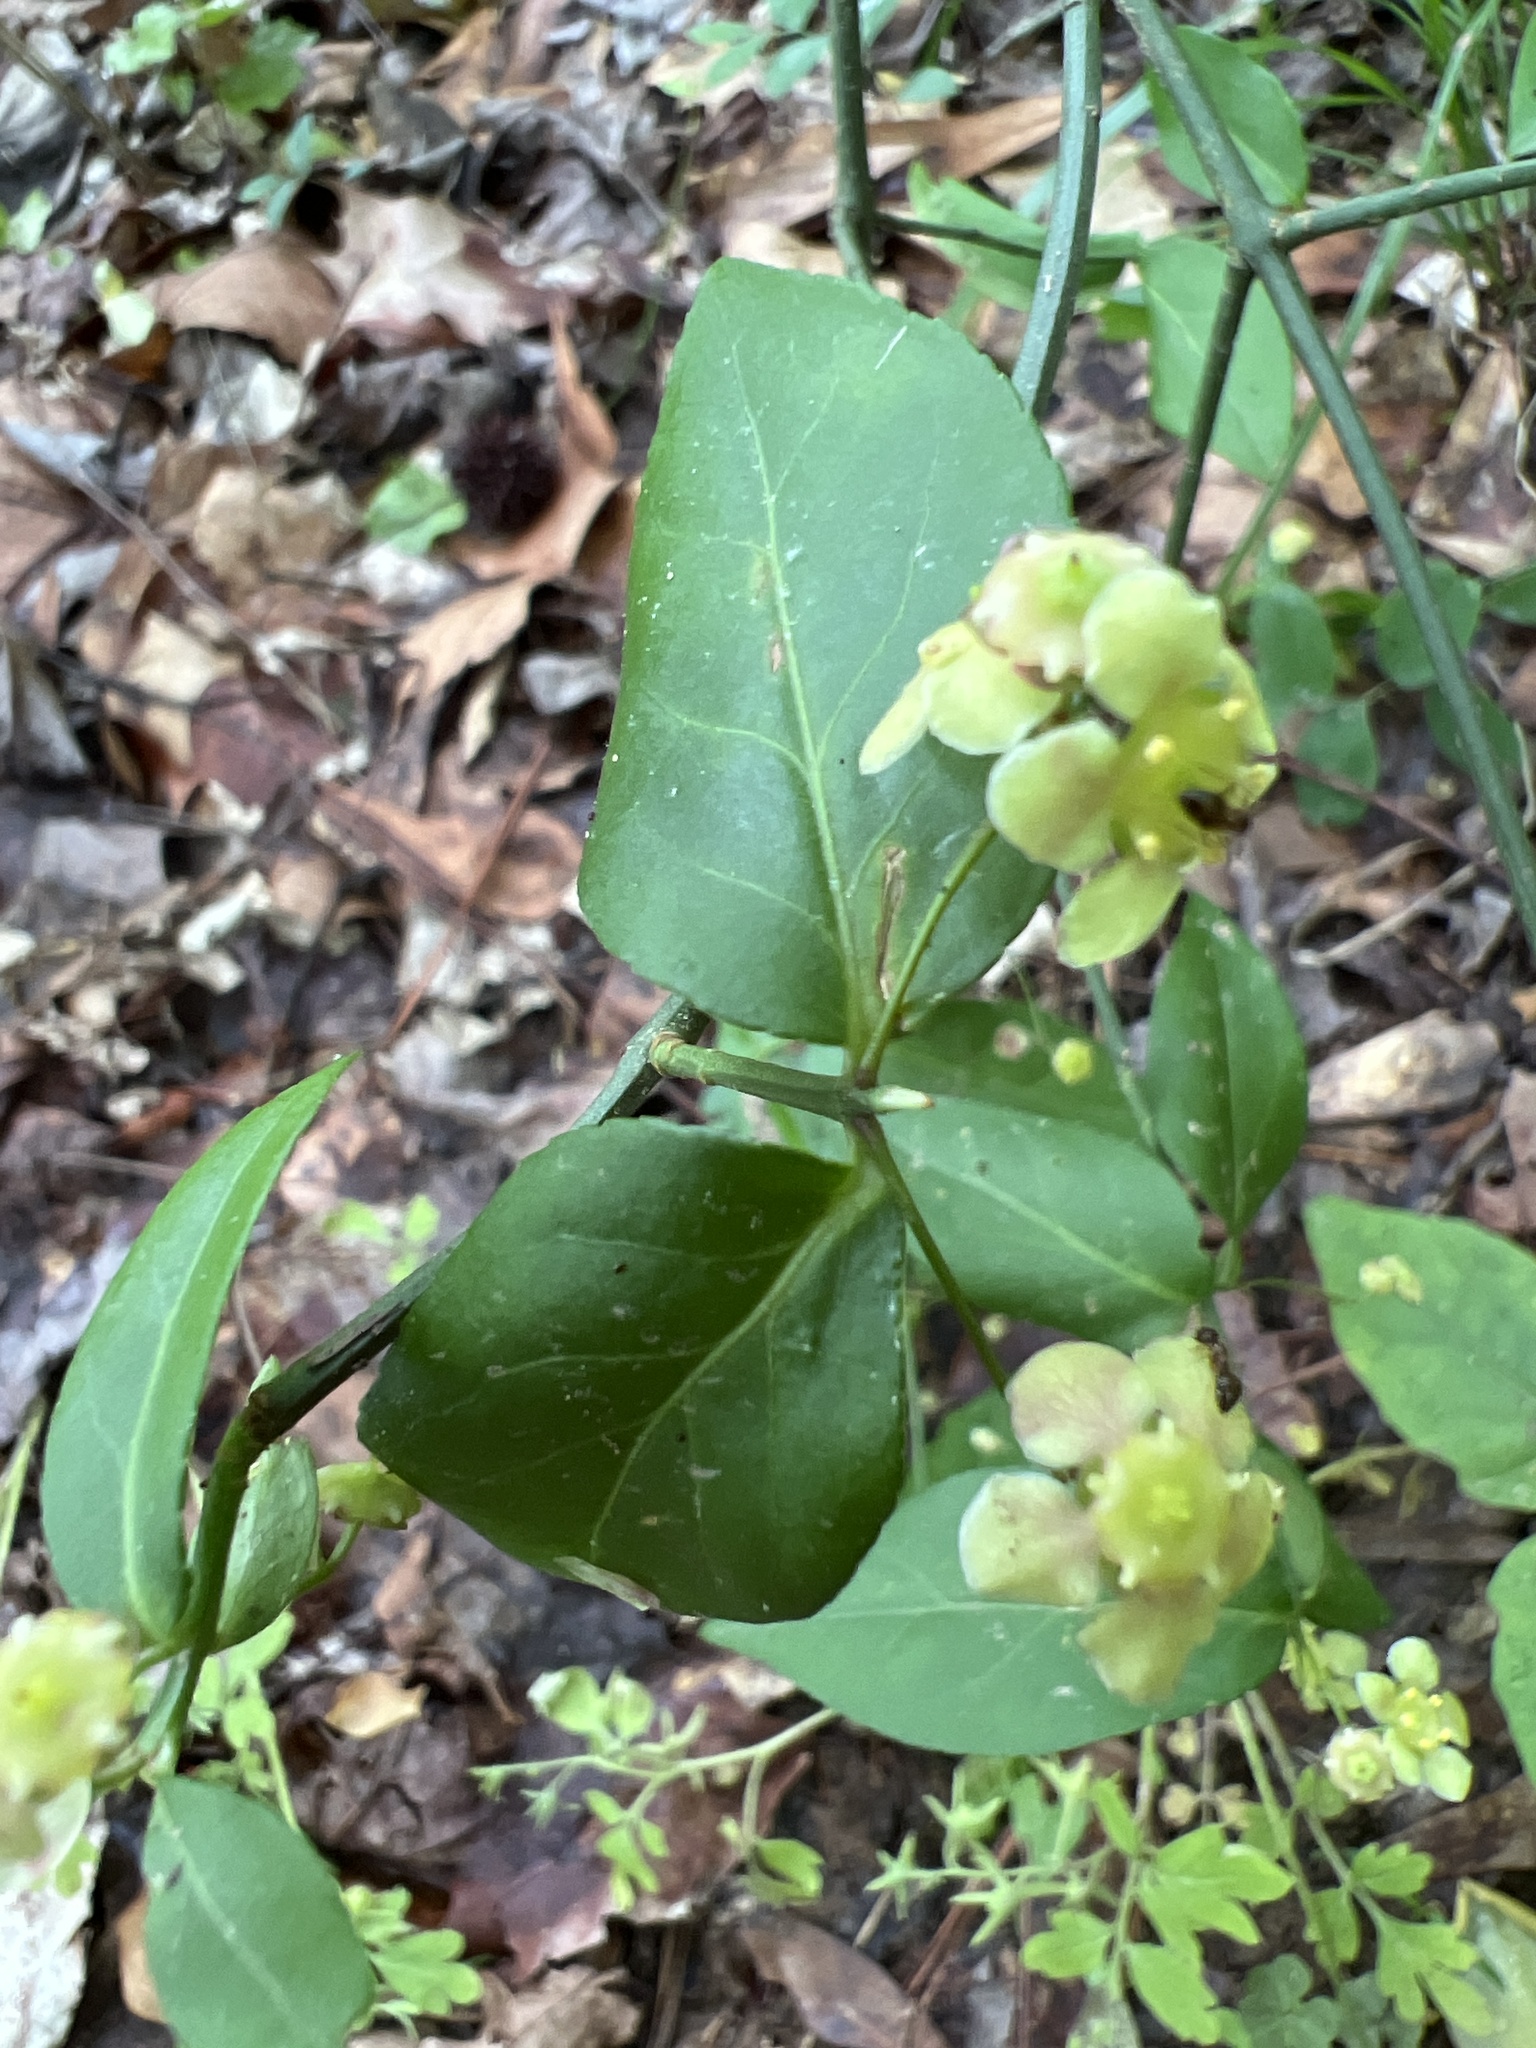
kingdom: Plantae
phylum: Tracheophyta
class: Magnoliopsida
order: Celastrales
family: Celastraceae
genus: Euonymus
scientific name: Euonymus americanus
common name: Bursting-heart
